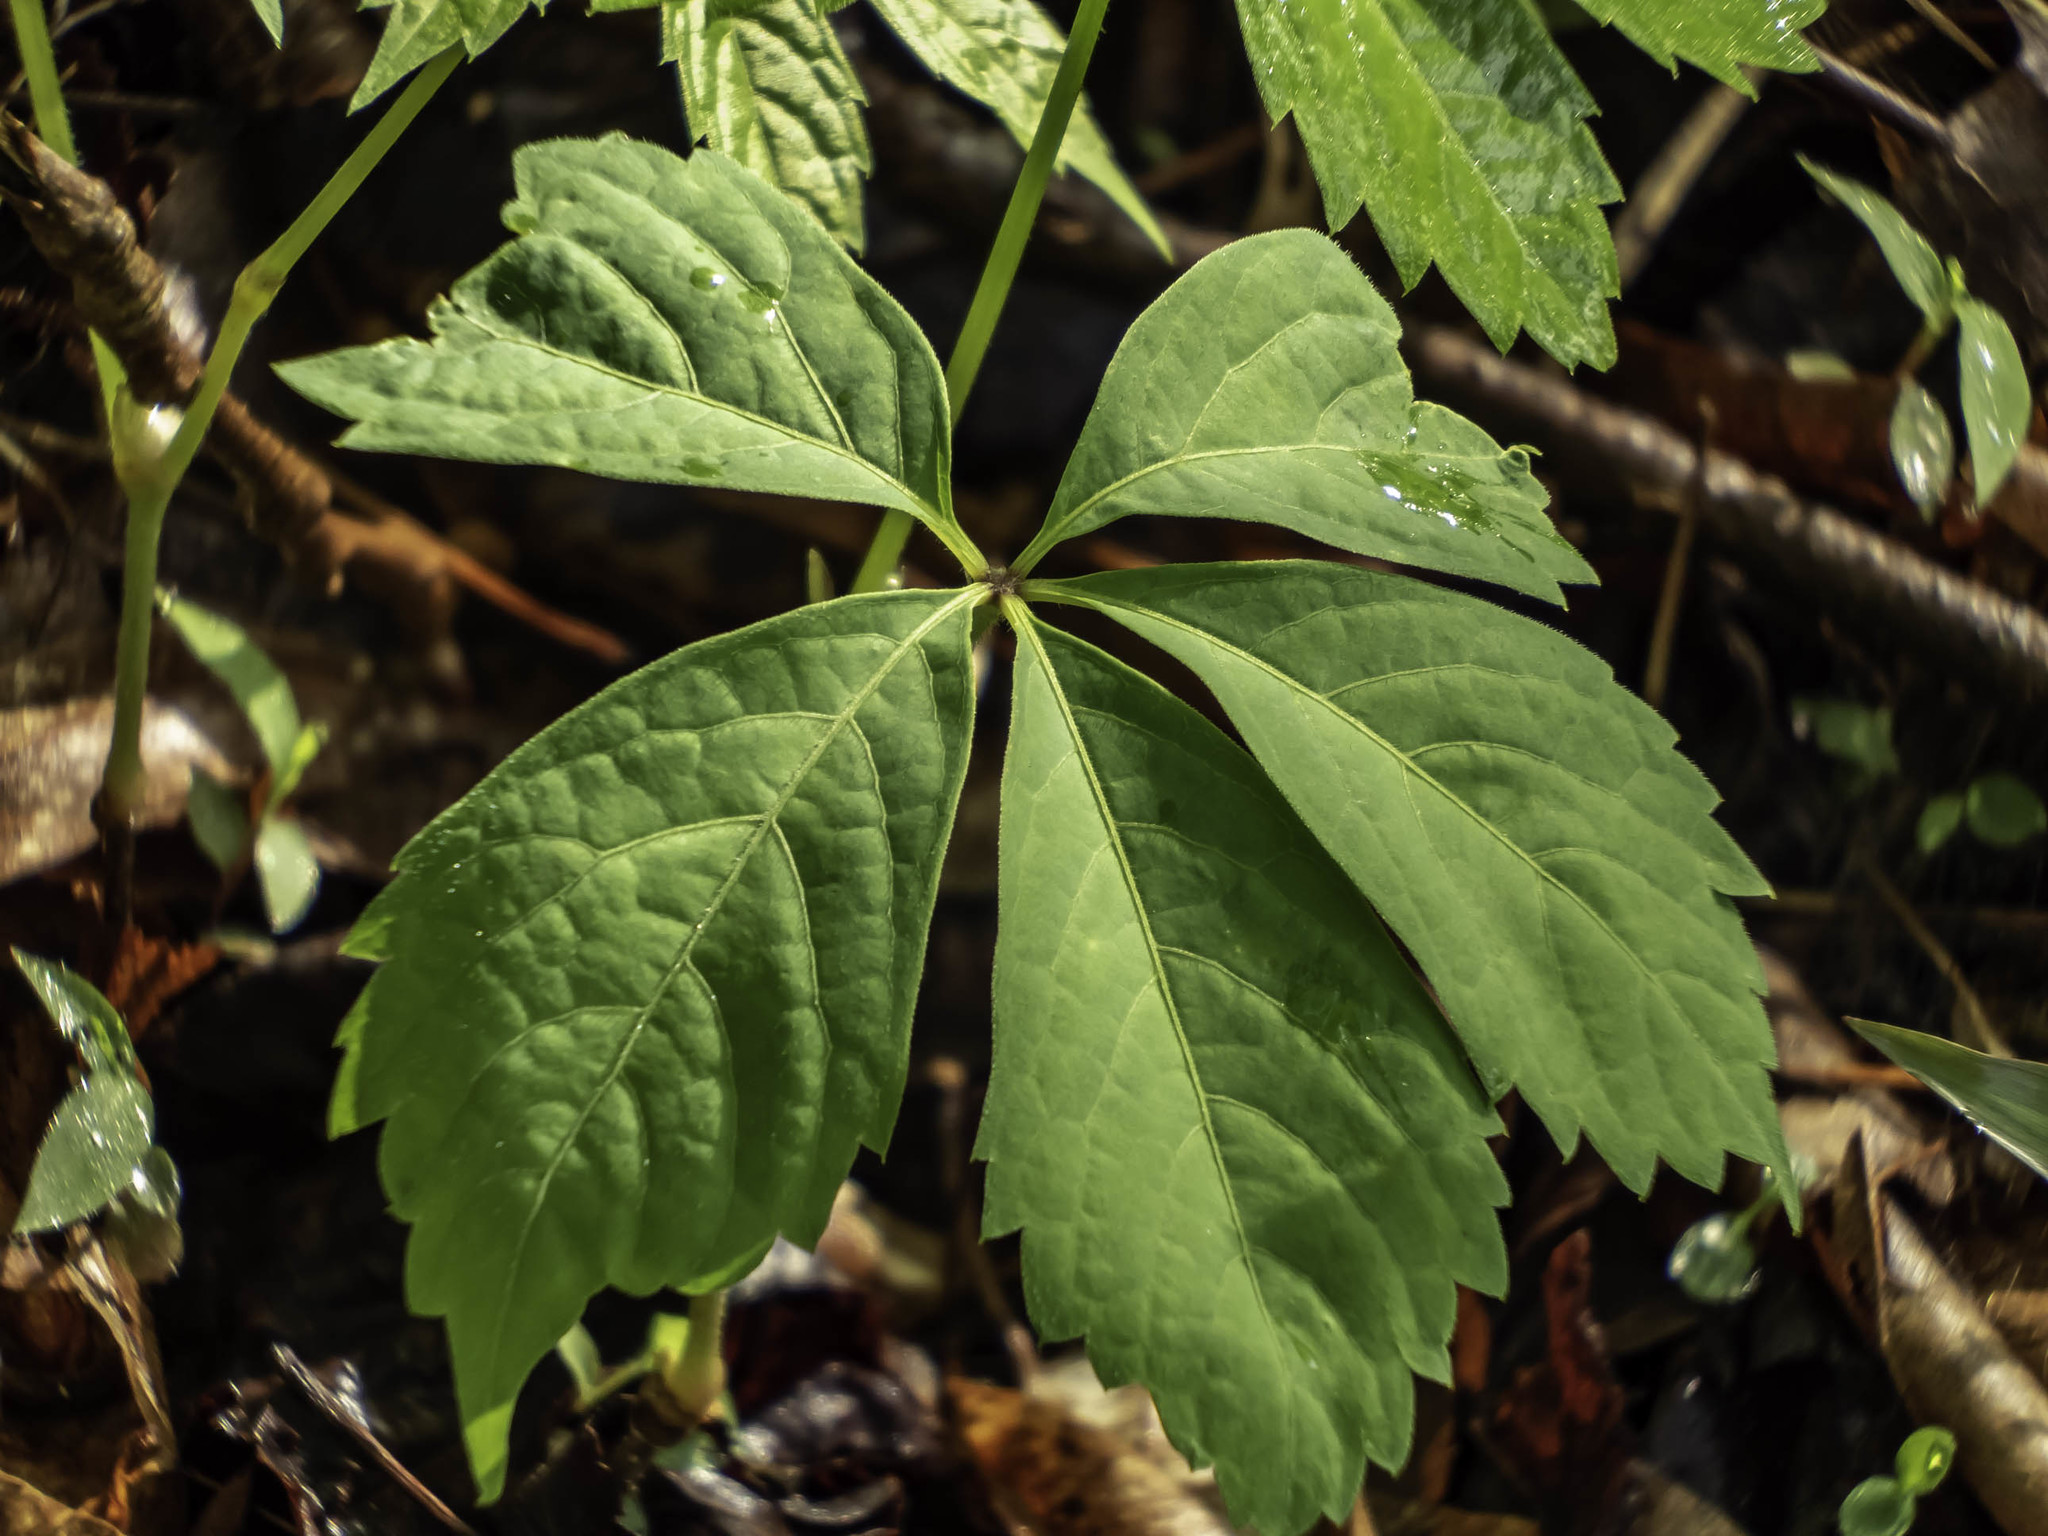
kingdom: Plantae
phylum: Tracheophyta
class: Magnoliopsida
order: Vitales
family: Vitaceae
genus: Parthenocissus
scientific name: Parthenocissus quinquefolia
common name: Virginia-creeper
